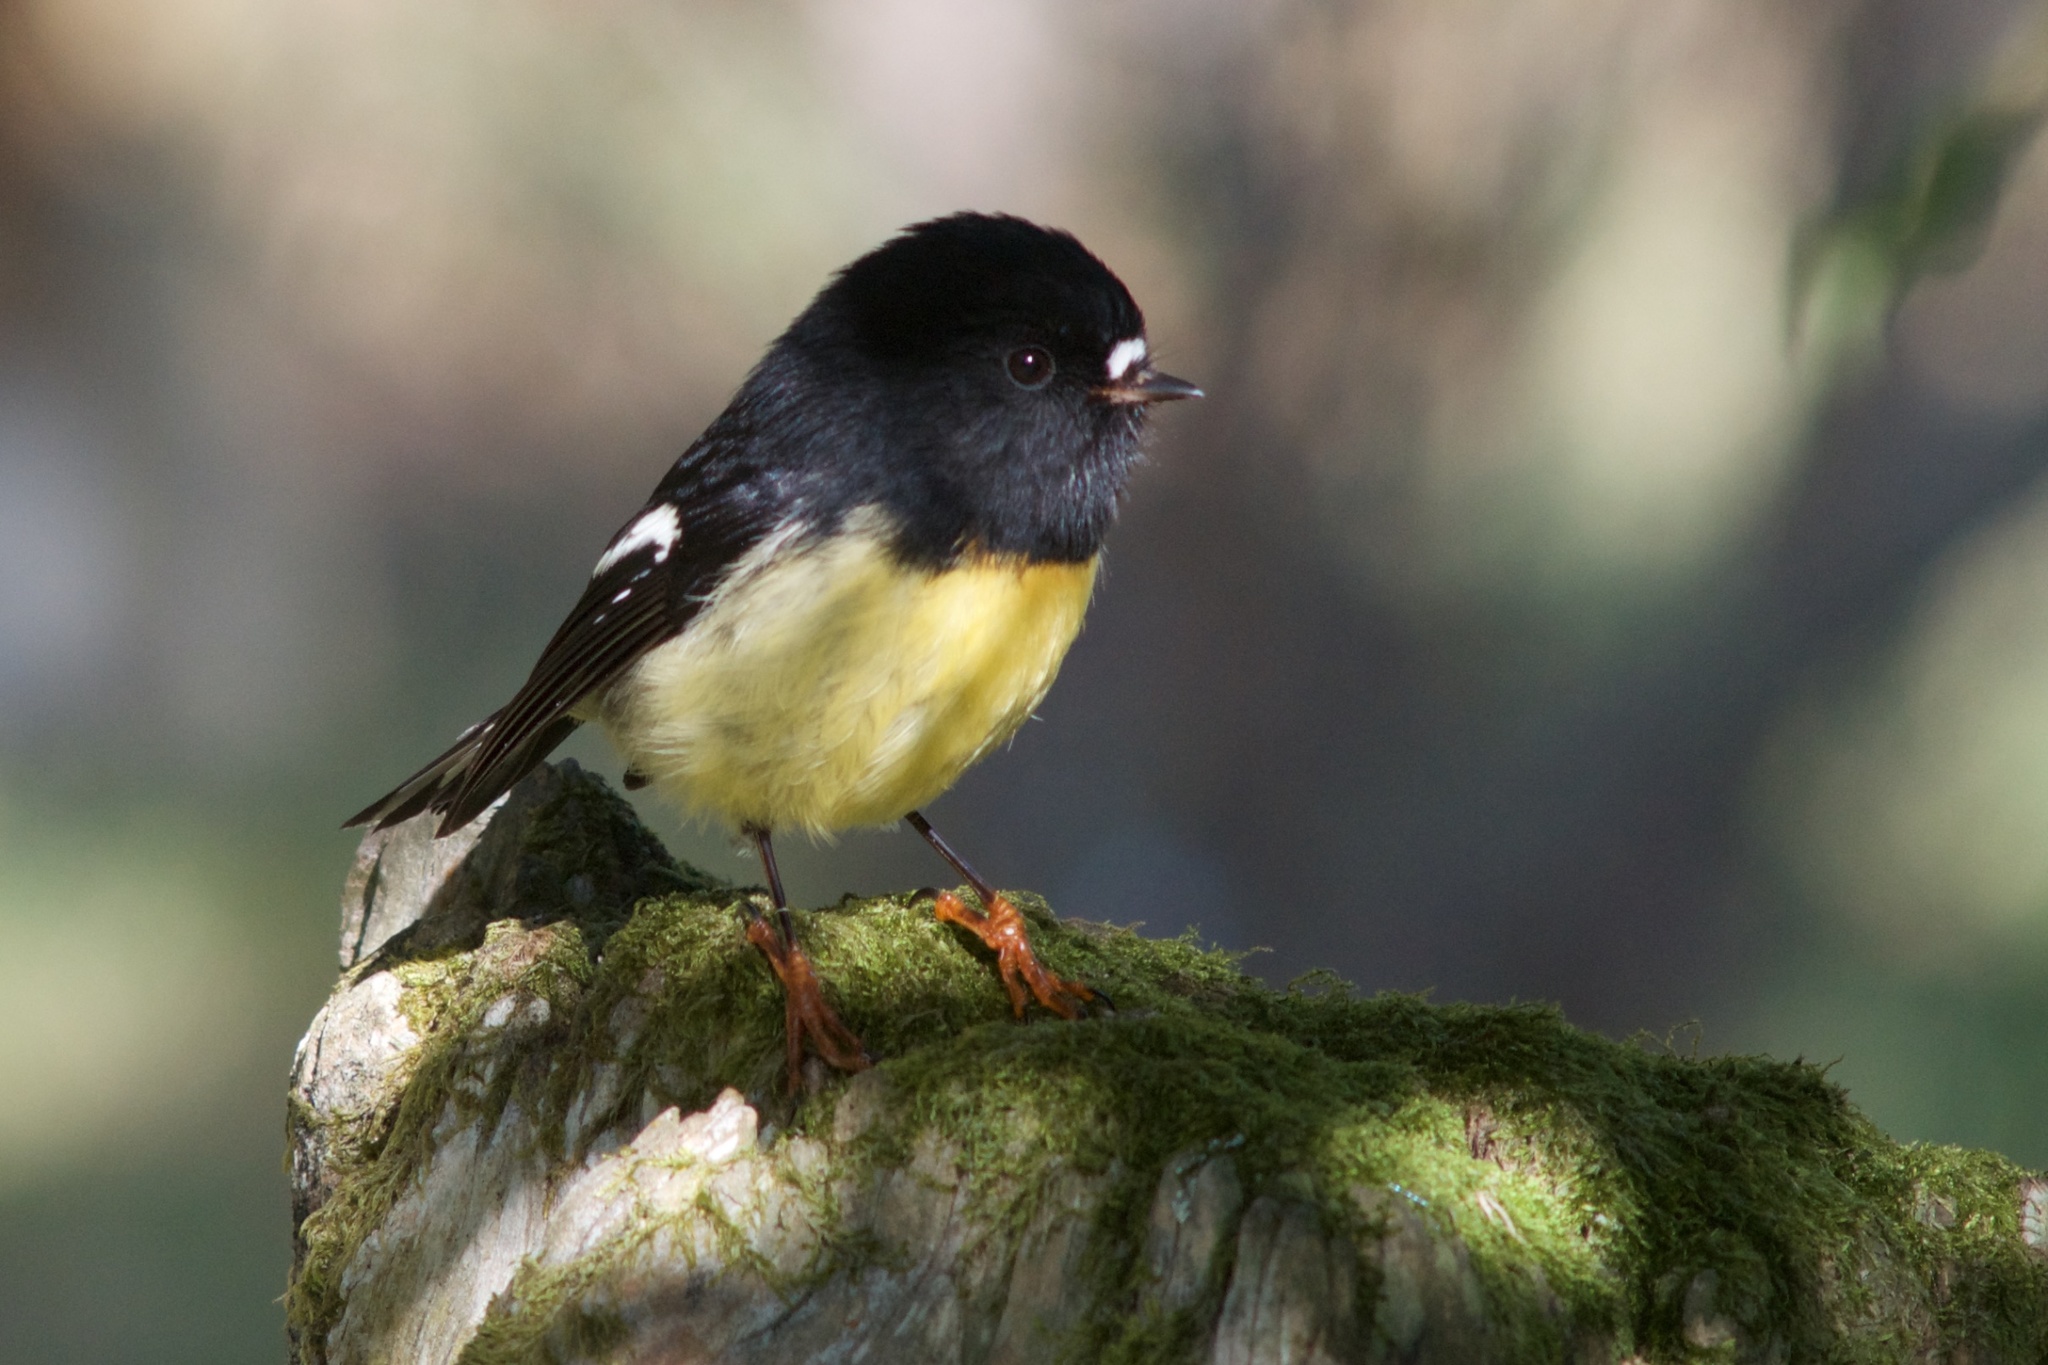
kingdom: Animalia
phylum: Chordata
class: Aves
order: Passeriformes
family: Petroicidae
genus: Petroica
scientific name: Petroica macrocephala
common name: Tomtit
